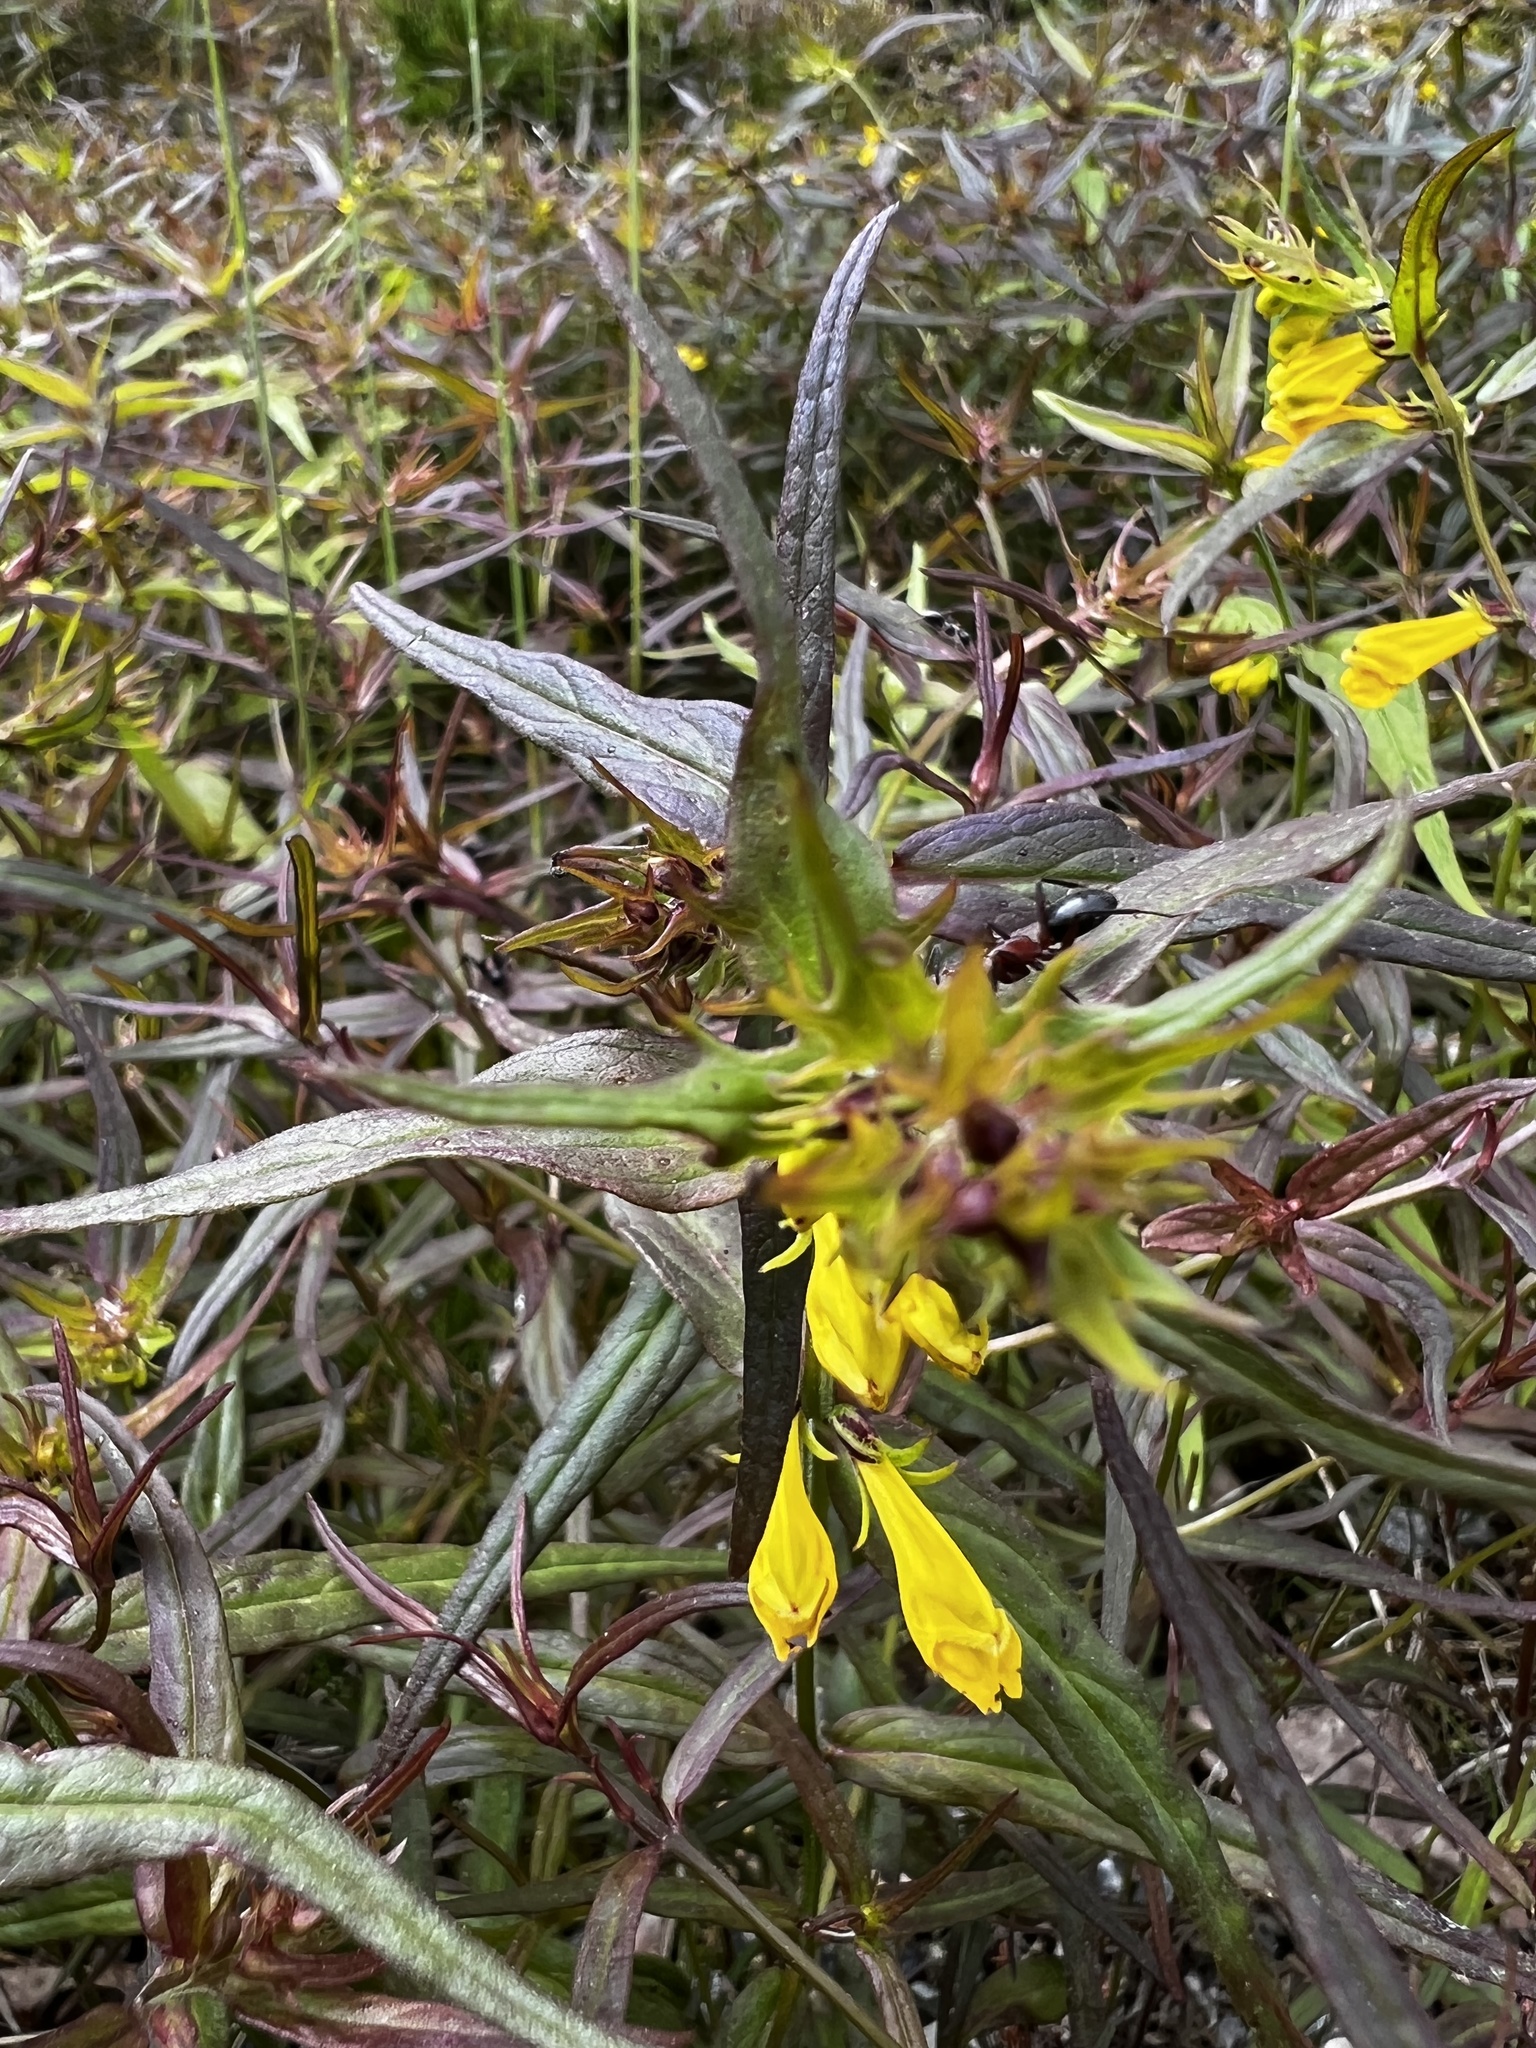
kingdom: Plantae
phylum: Tracheophyta
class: Magnoliopsida
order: Lamiales
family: Orobanchaceae
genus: Melampyrum
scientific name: Melampyrum pratense
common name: Common cow-wheat
